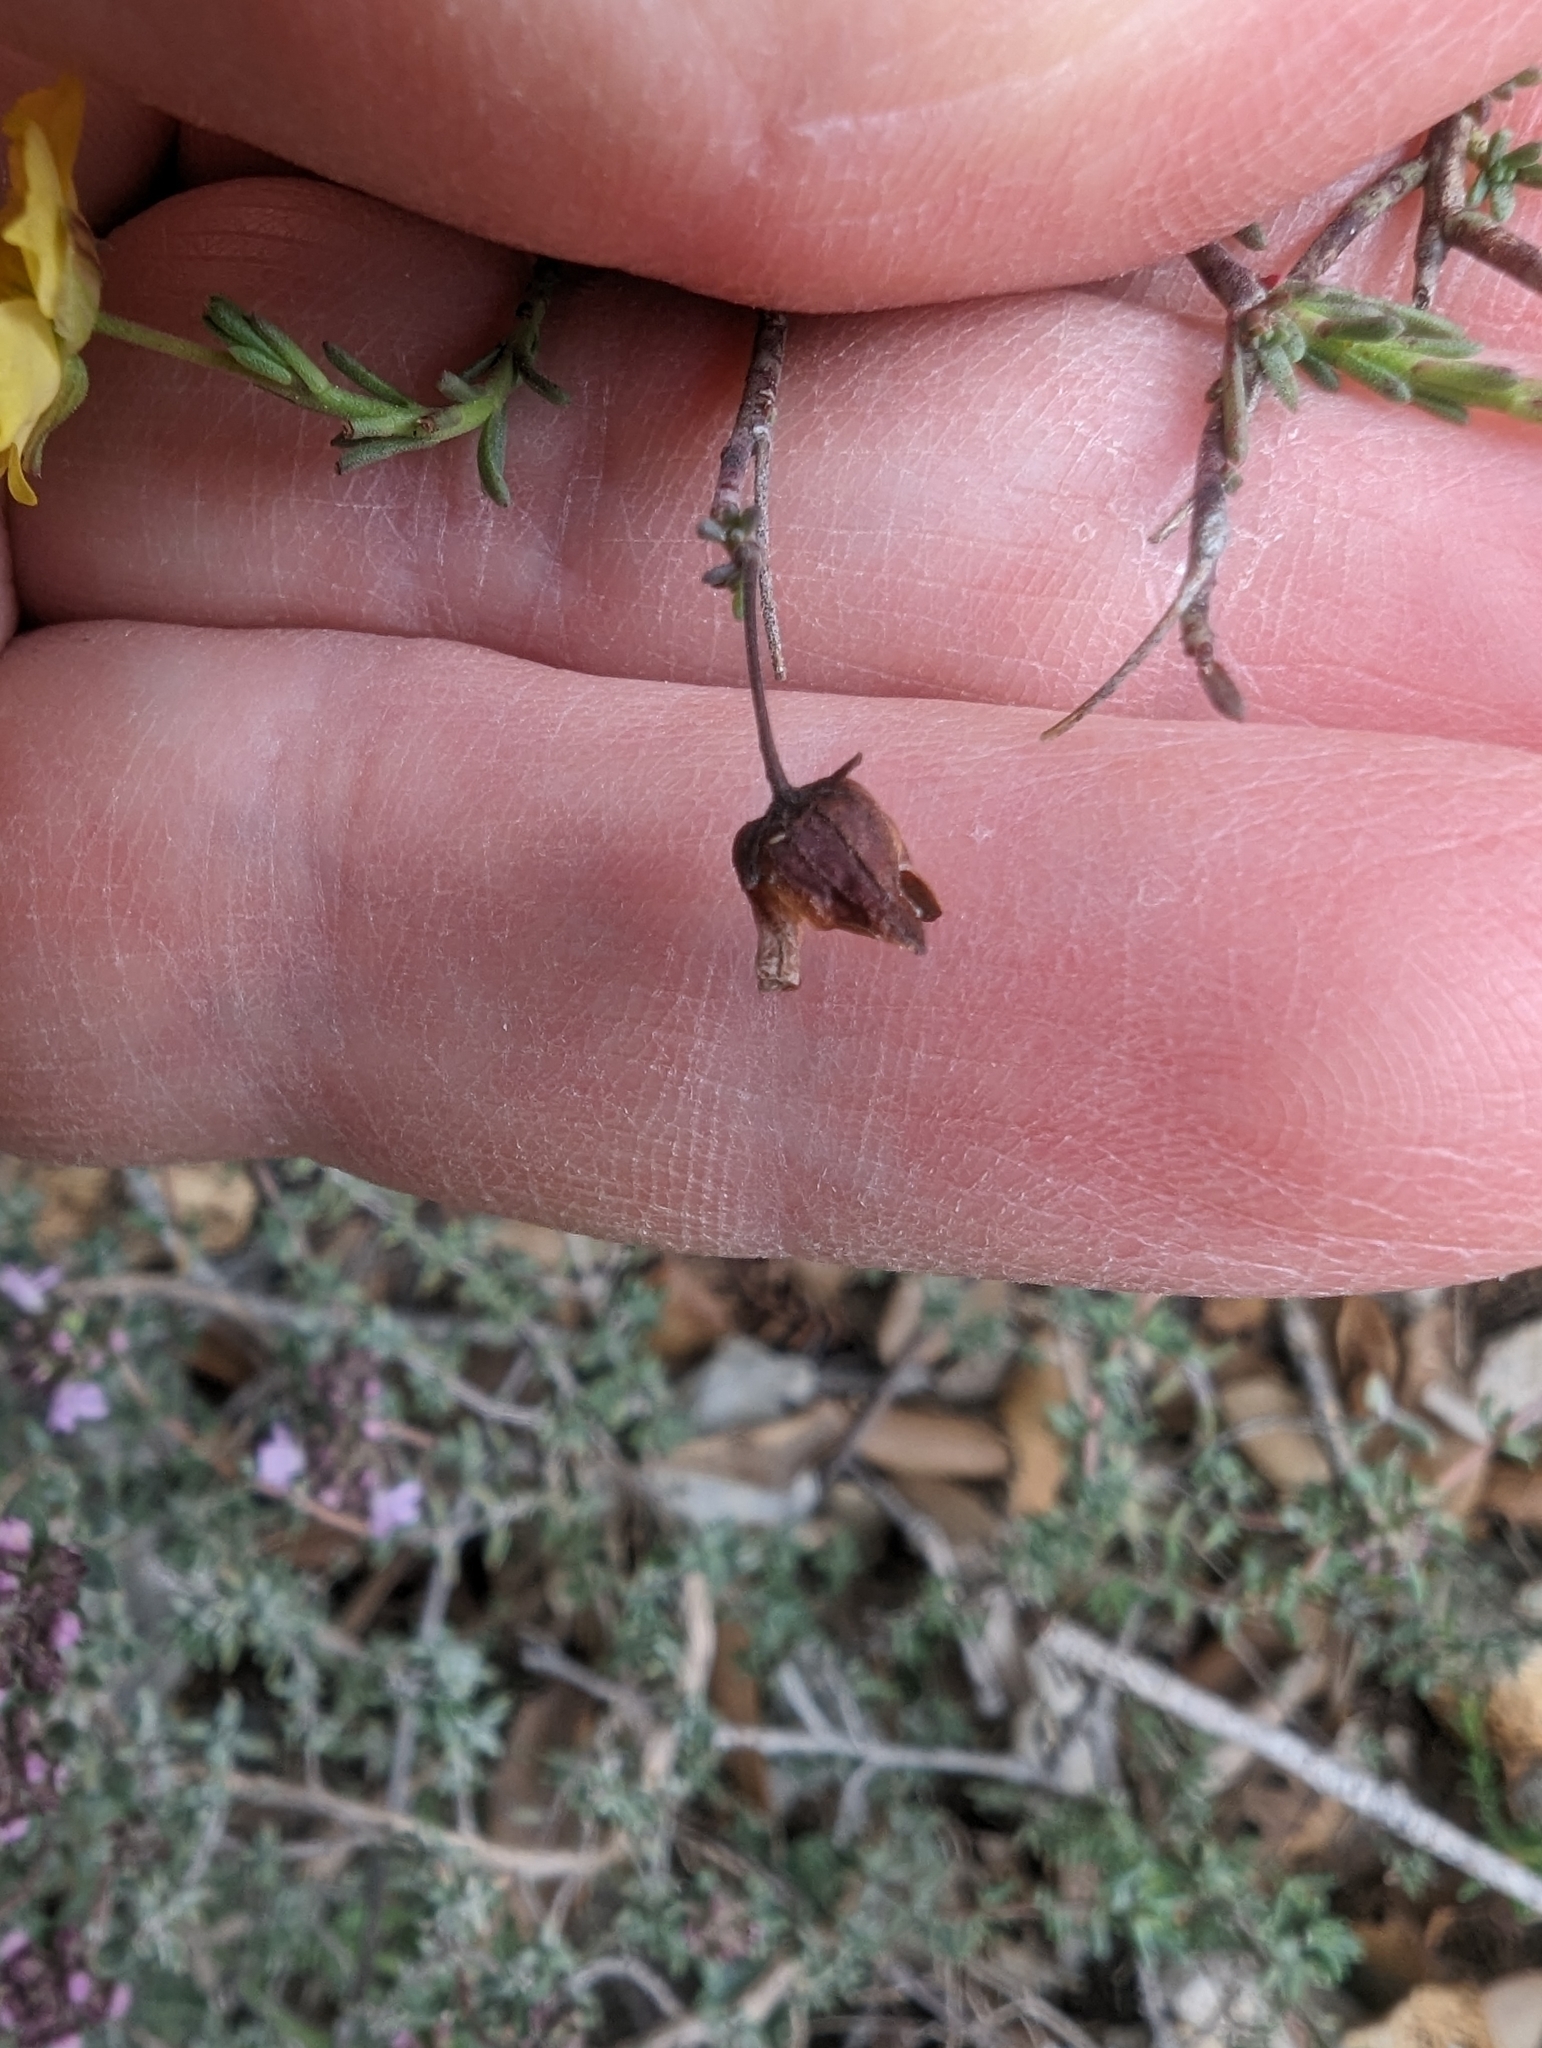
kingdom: Plantae
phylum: Tracheophyta
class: Magnoliopsida
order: Malvales
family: Cistaceae
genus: Fumana
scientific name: Fumana ericifolia
